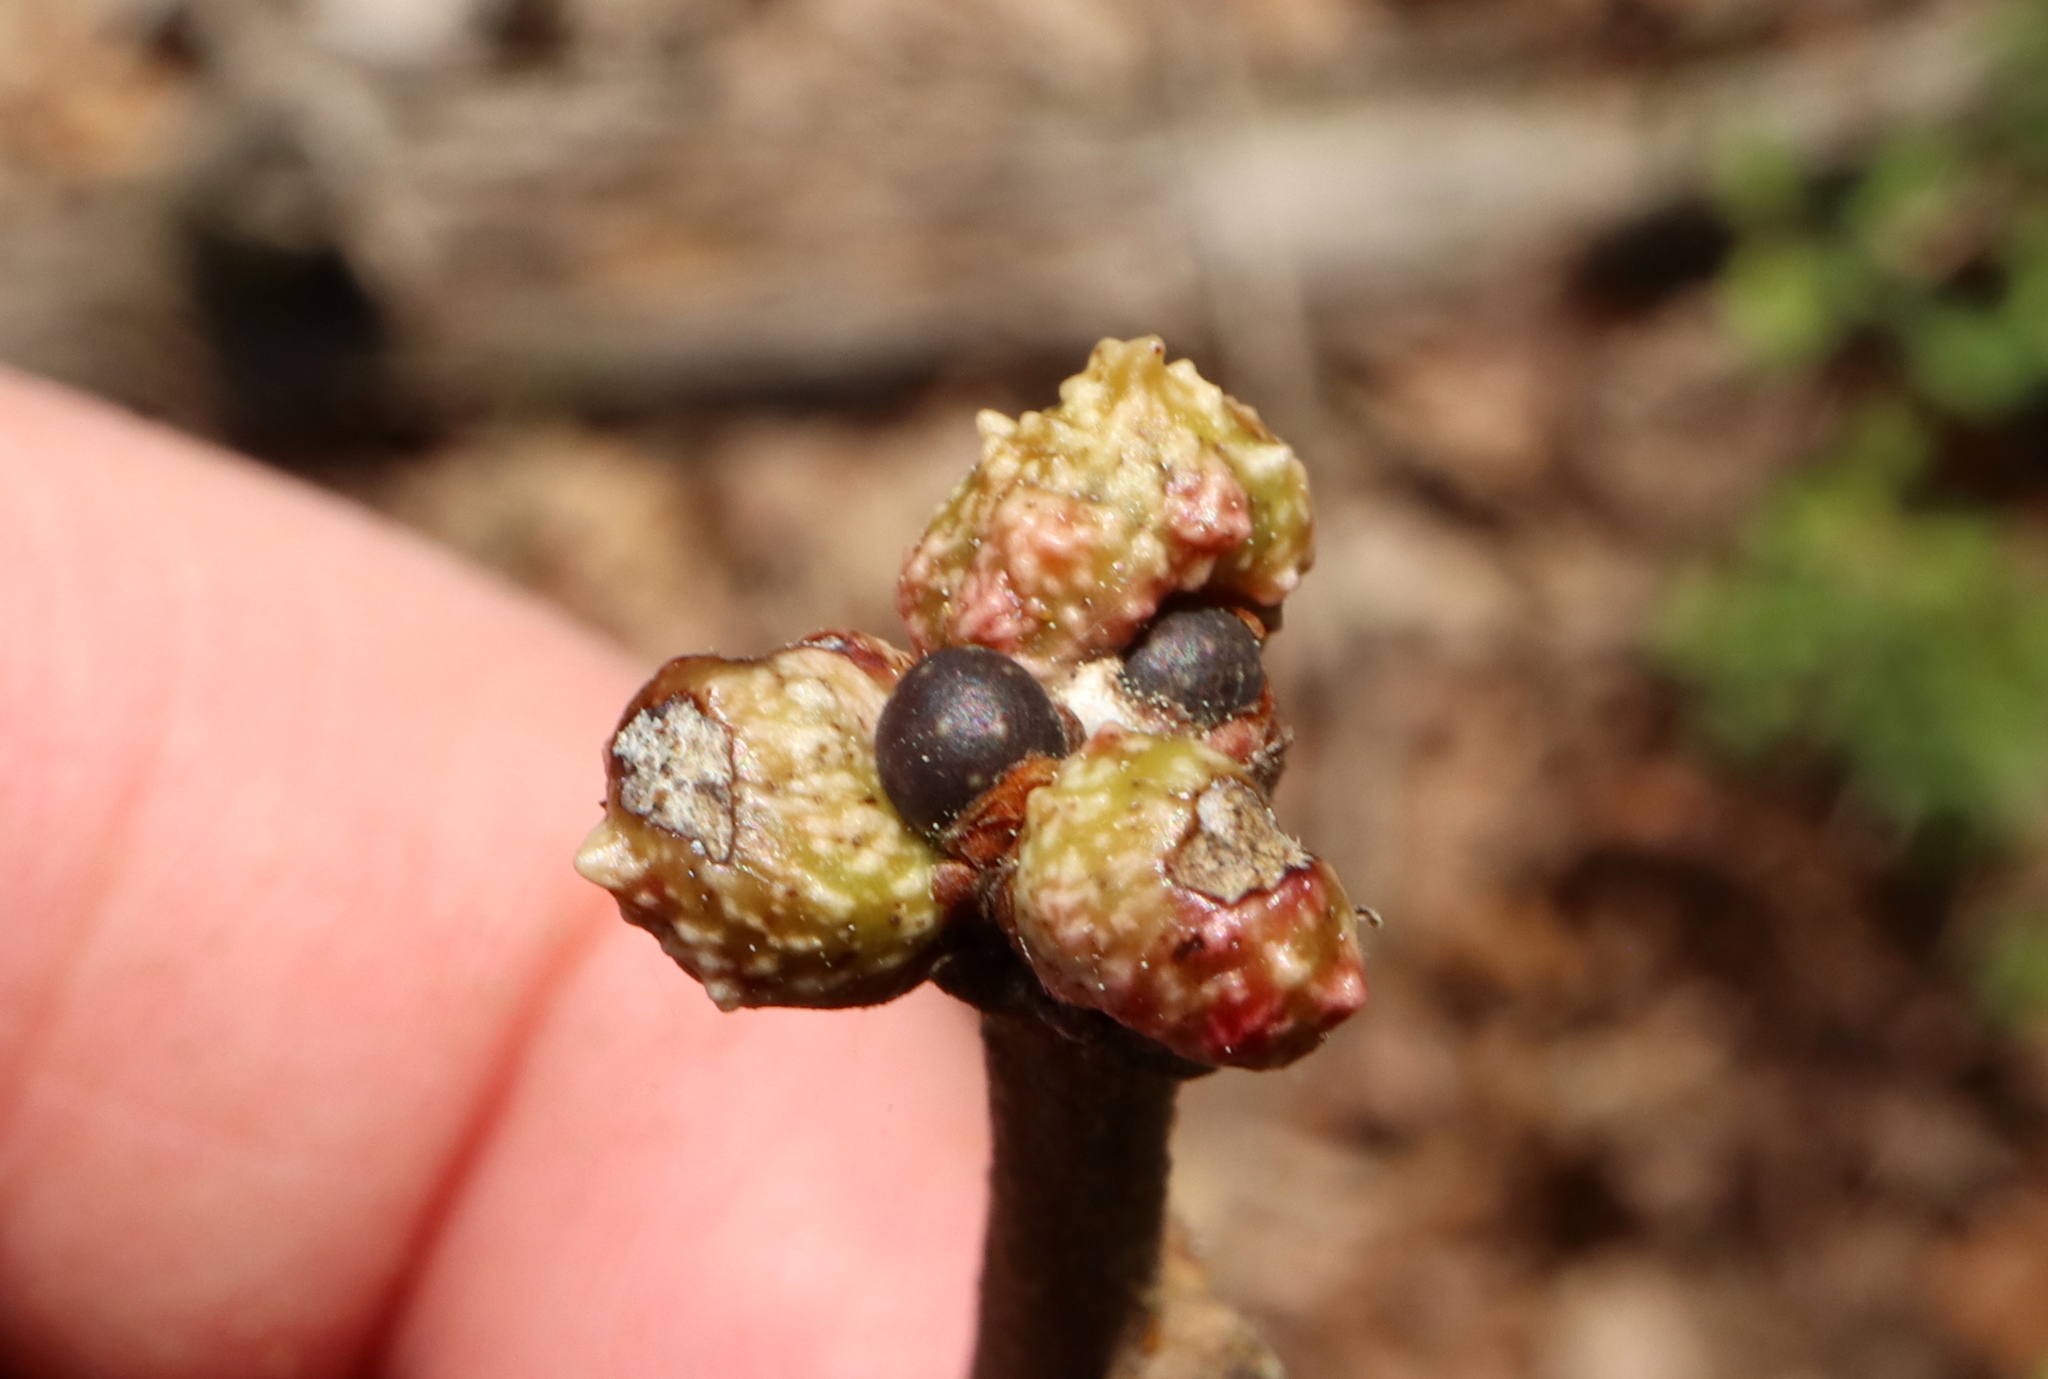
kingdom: Animalia
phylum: Arthropoda
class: Insecta
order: Hymenoptera
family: Cynipidae
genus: Neuroterus
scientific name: Neuroterus
